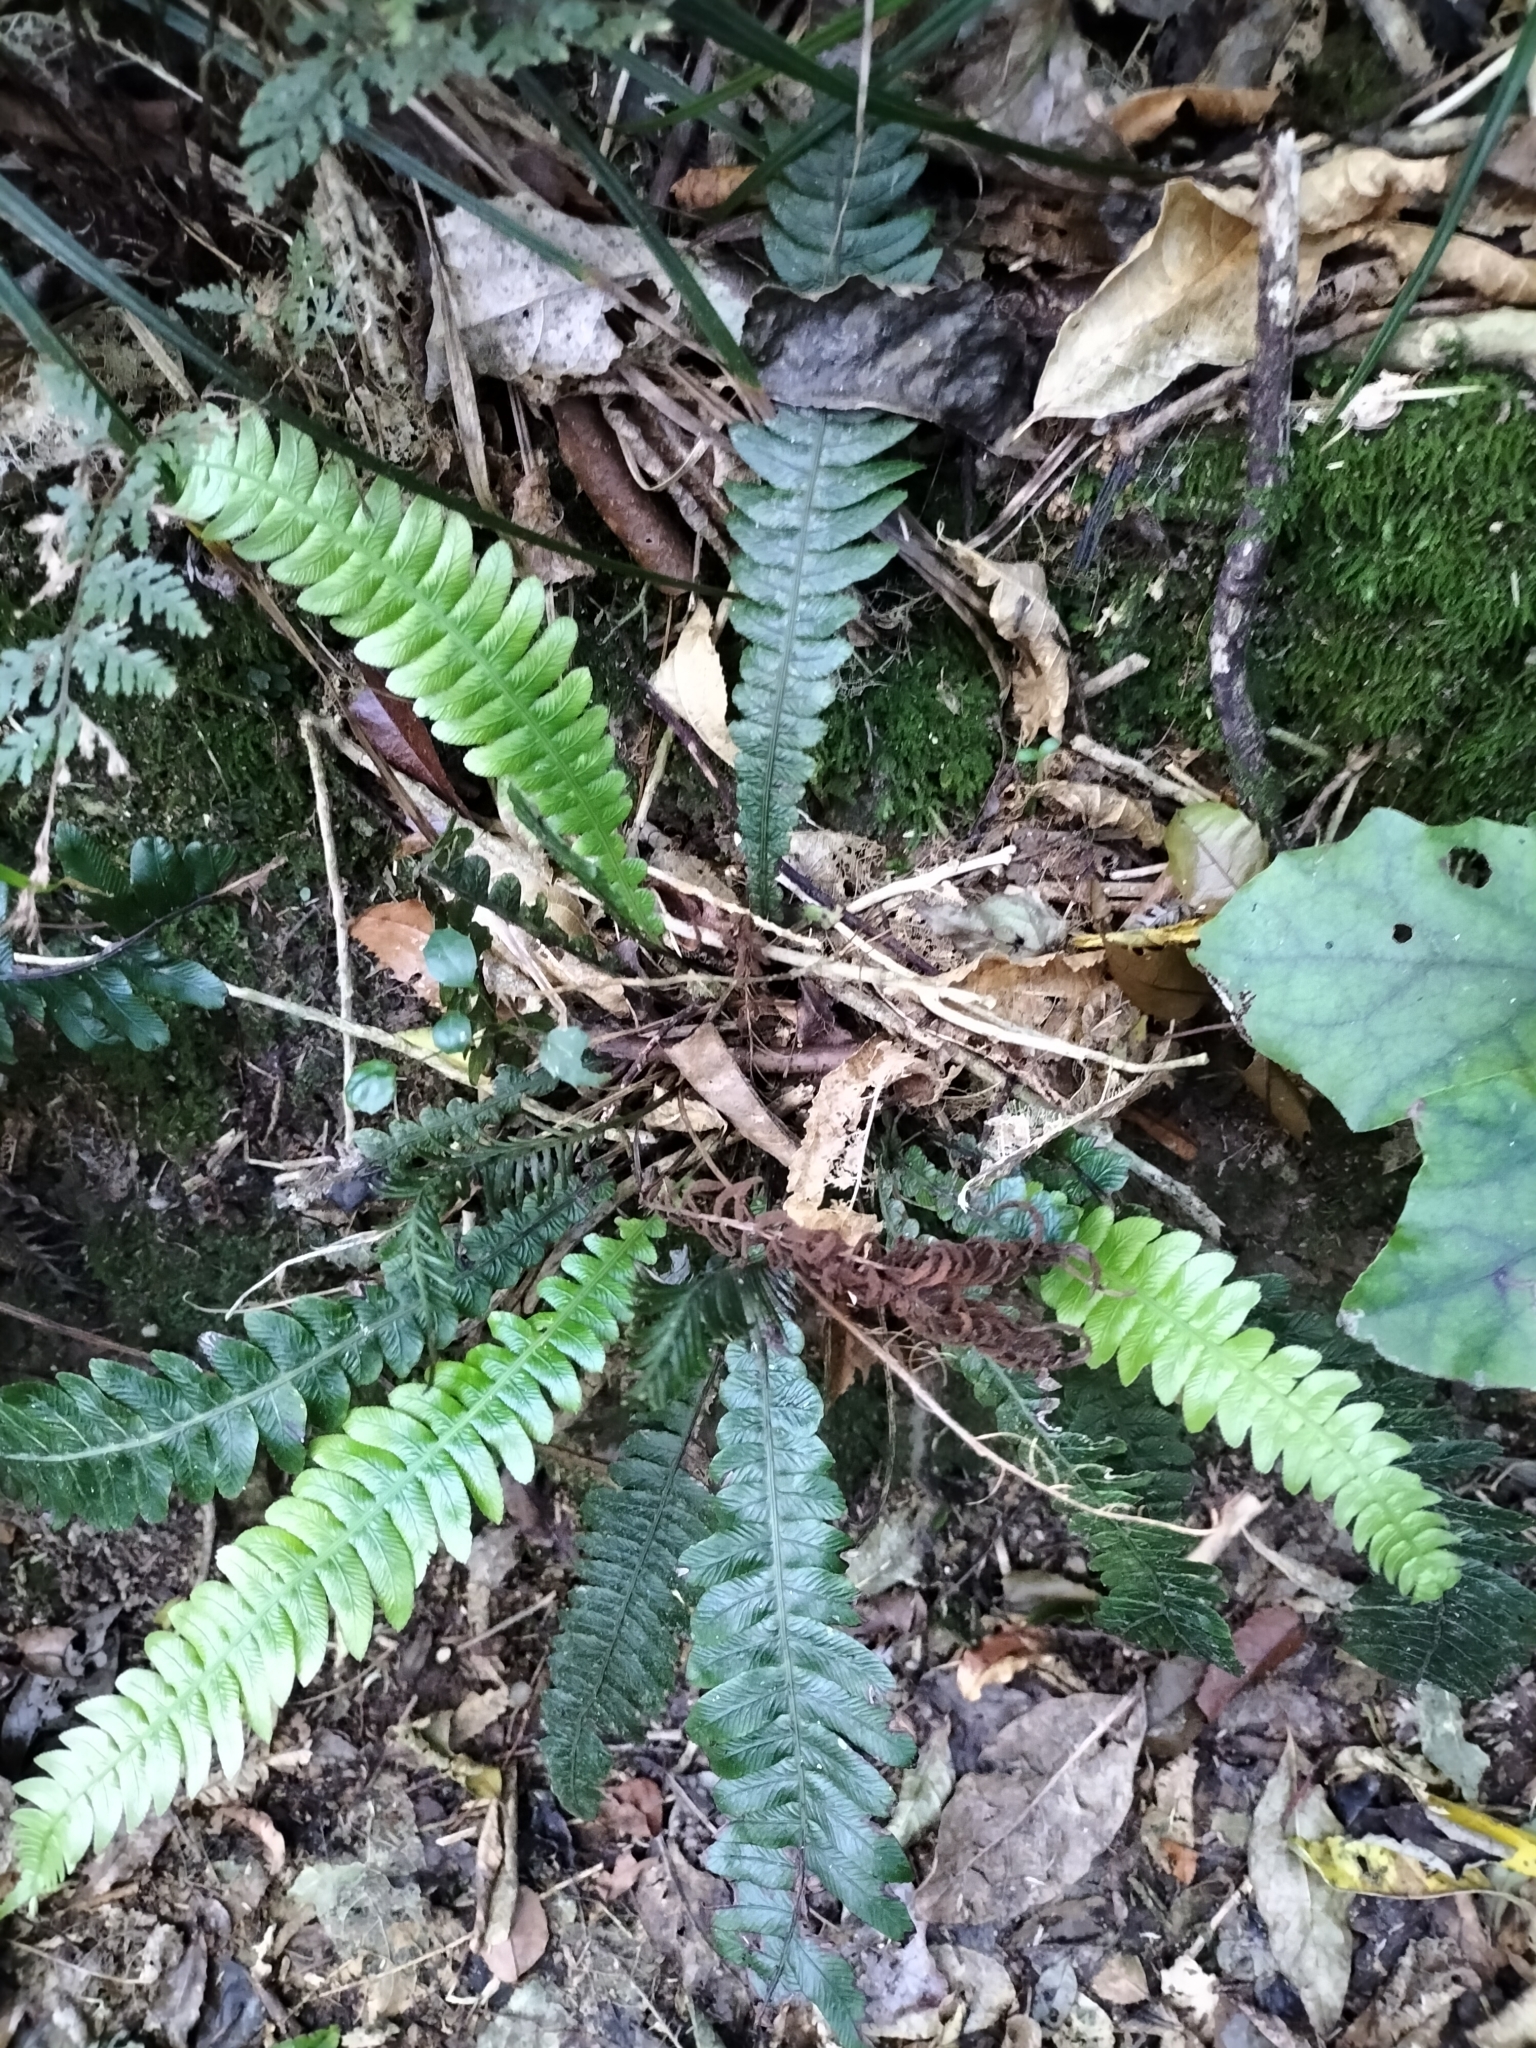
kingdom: Plantae
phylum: Tracheophyta
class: Polypodiopsida
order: Polypodiales
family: Blechnaceae
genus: Austroblechnum
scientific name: Austroblechnum lanceolatum
